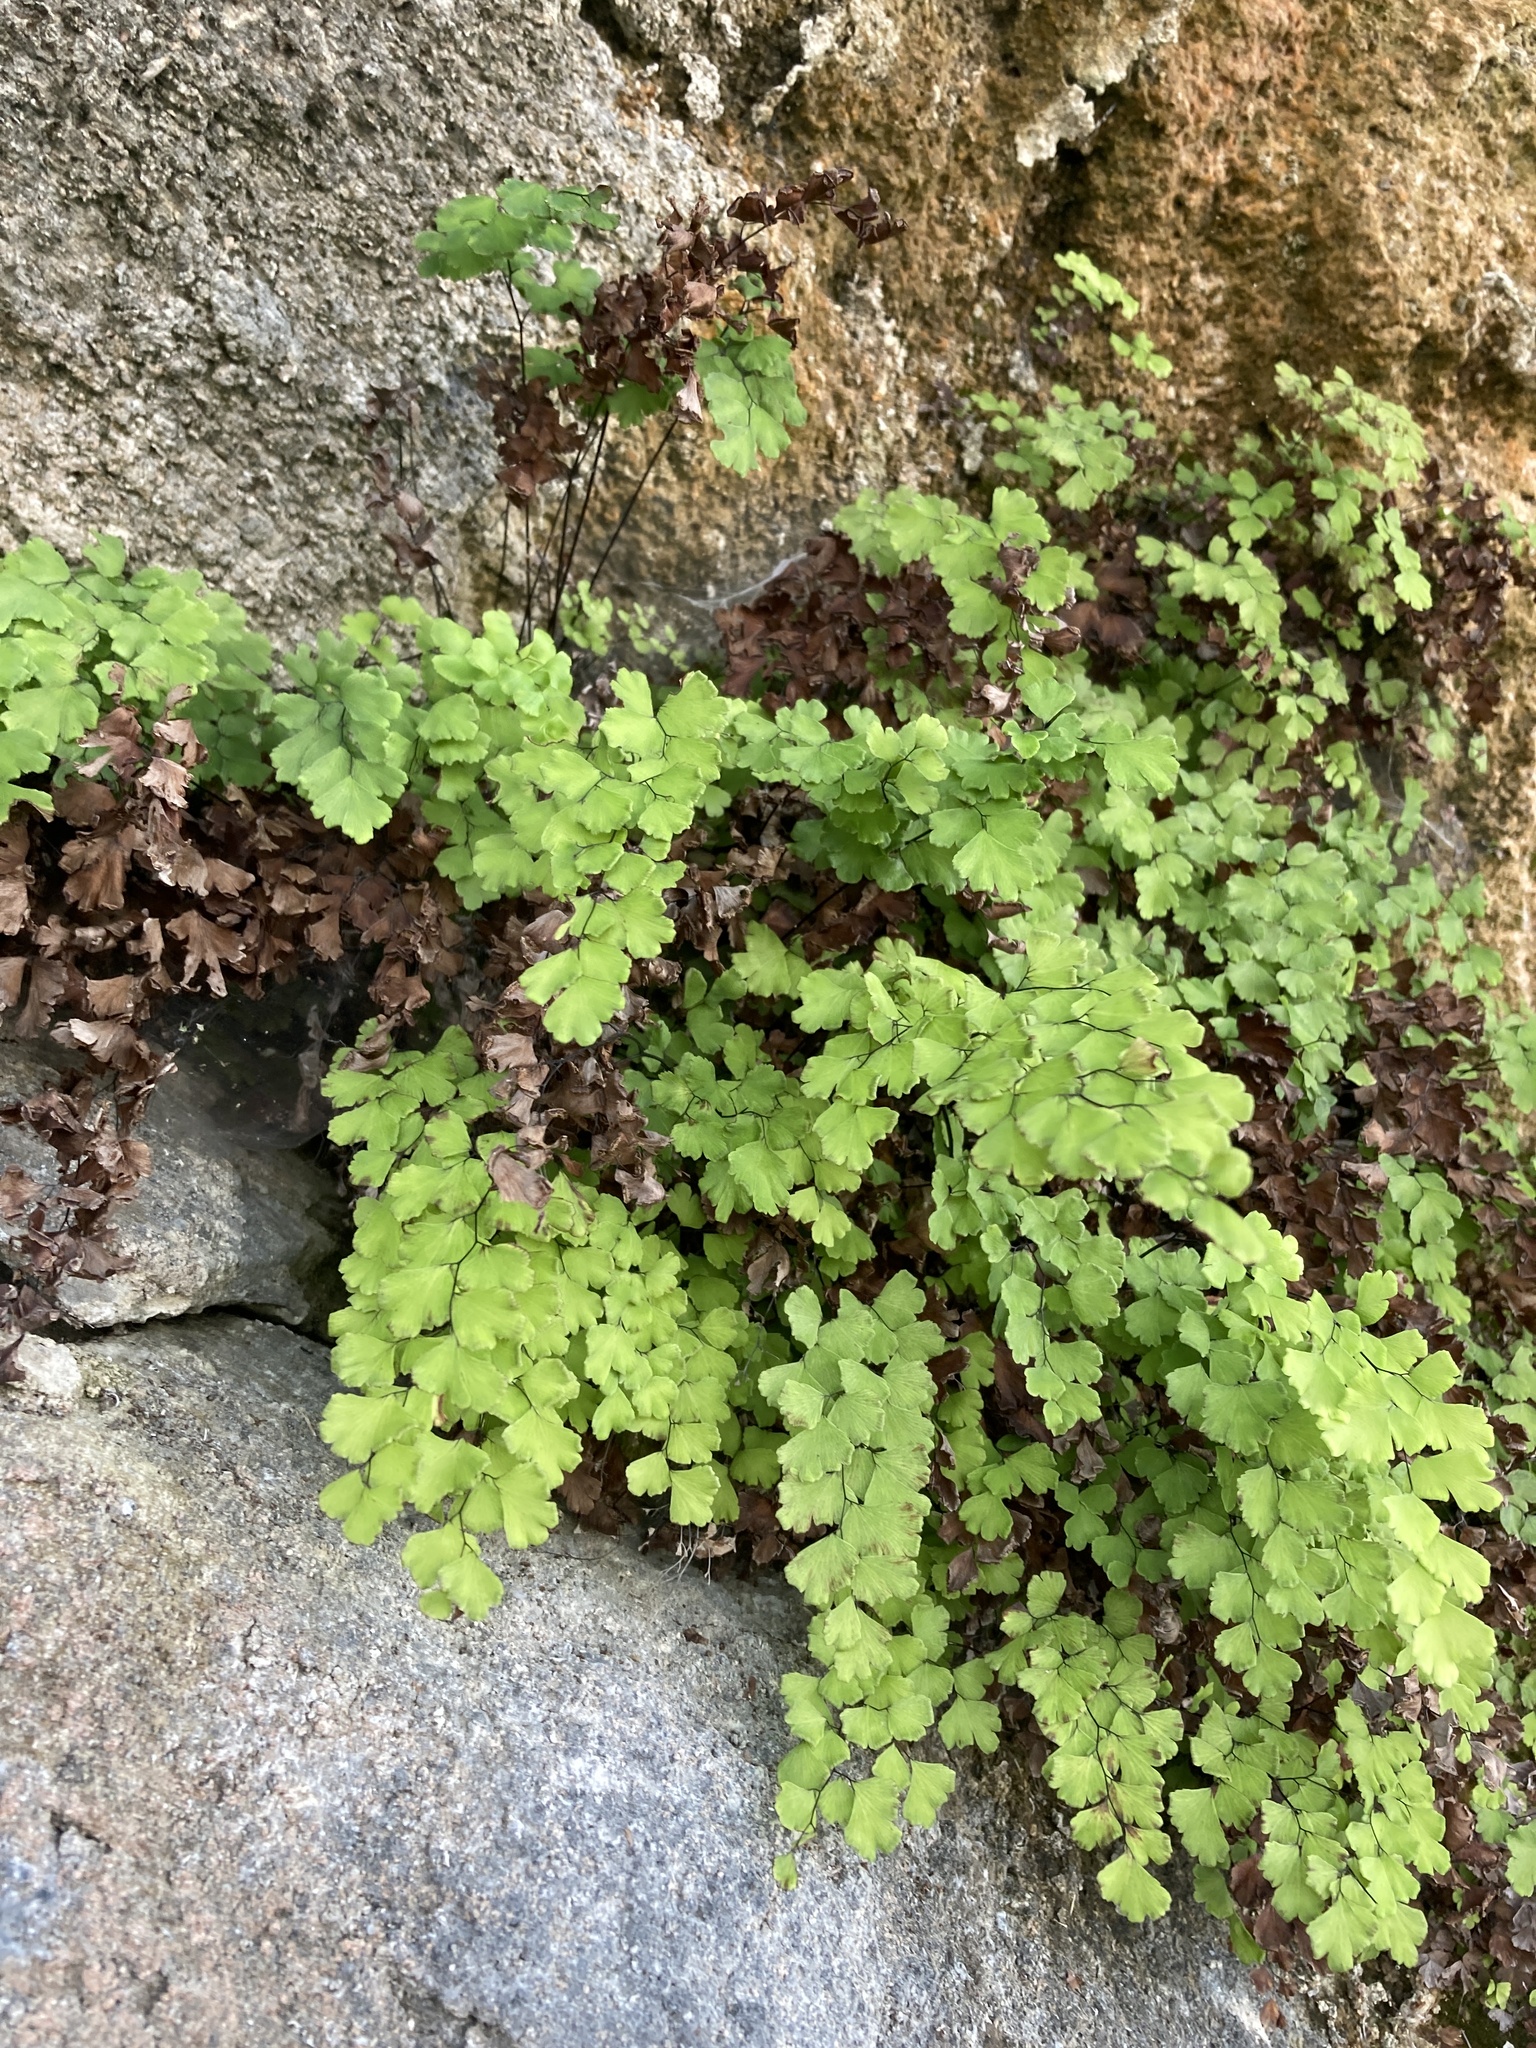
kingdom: Plantae
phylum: Tracheophyta
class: Polypodiopsida
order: Polypodiales
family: Pteridaceae
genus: Adiantum
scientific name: Adiantum capillus-veneris
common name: Maidenhair fern
